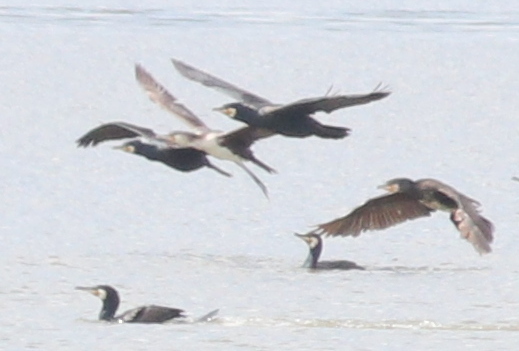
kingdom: Animalia
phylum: Chordata
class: Aves
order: Suliformes
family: Phalacrocoracidae
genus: Phalacrocorax
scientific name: Phalacrocorax carbo
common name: Great cormorant
